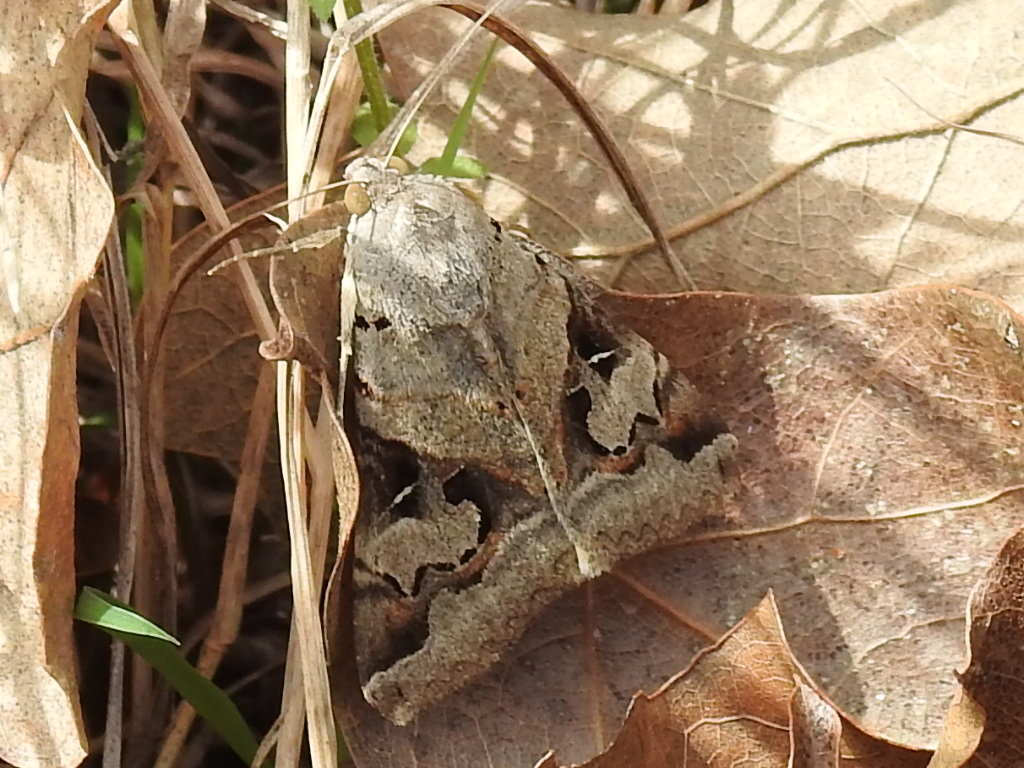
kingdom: Animalia
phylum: Arthropoda
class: Insecta
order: Lepidoptera
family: Erebidae
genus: Melipotis
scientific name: Melipotis indomita
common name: Moth
